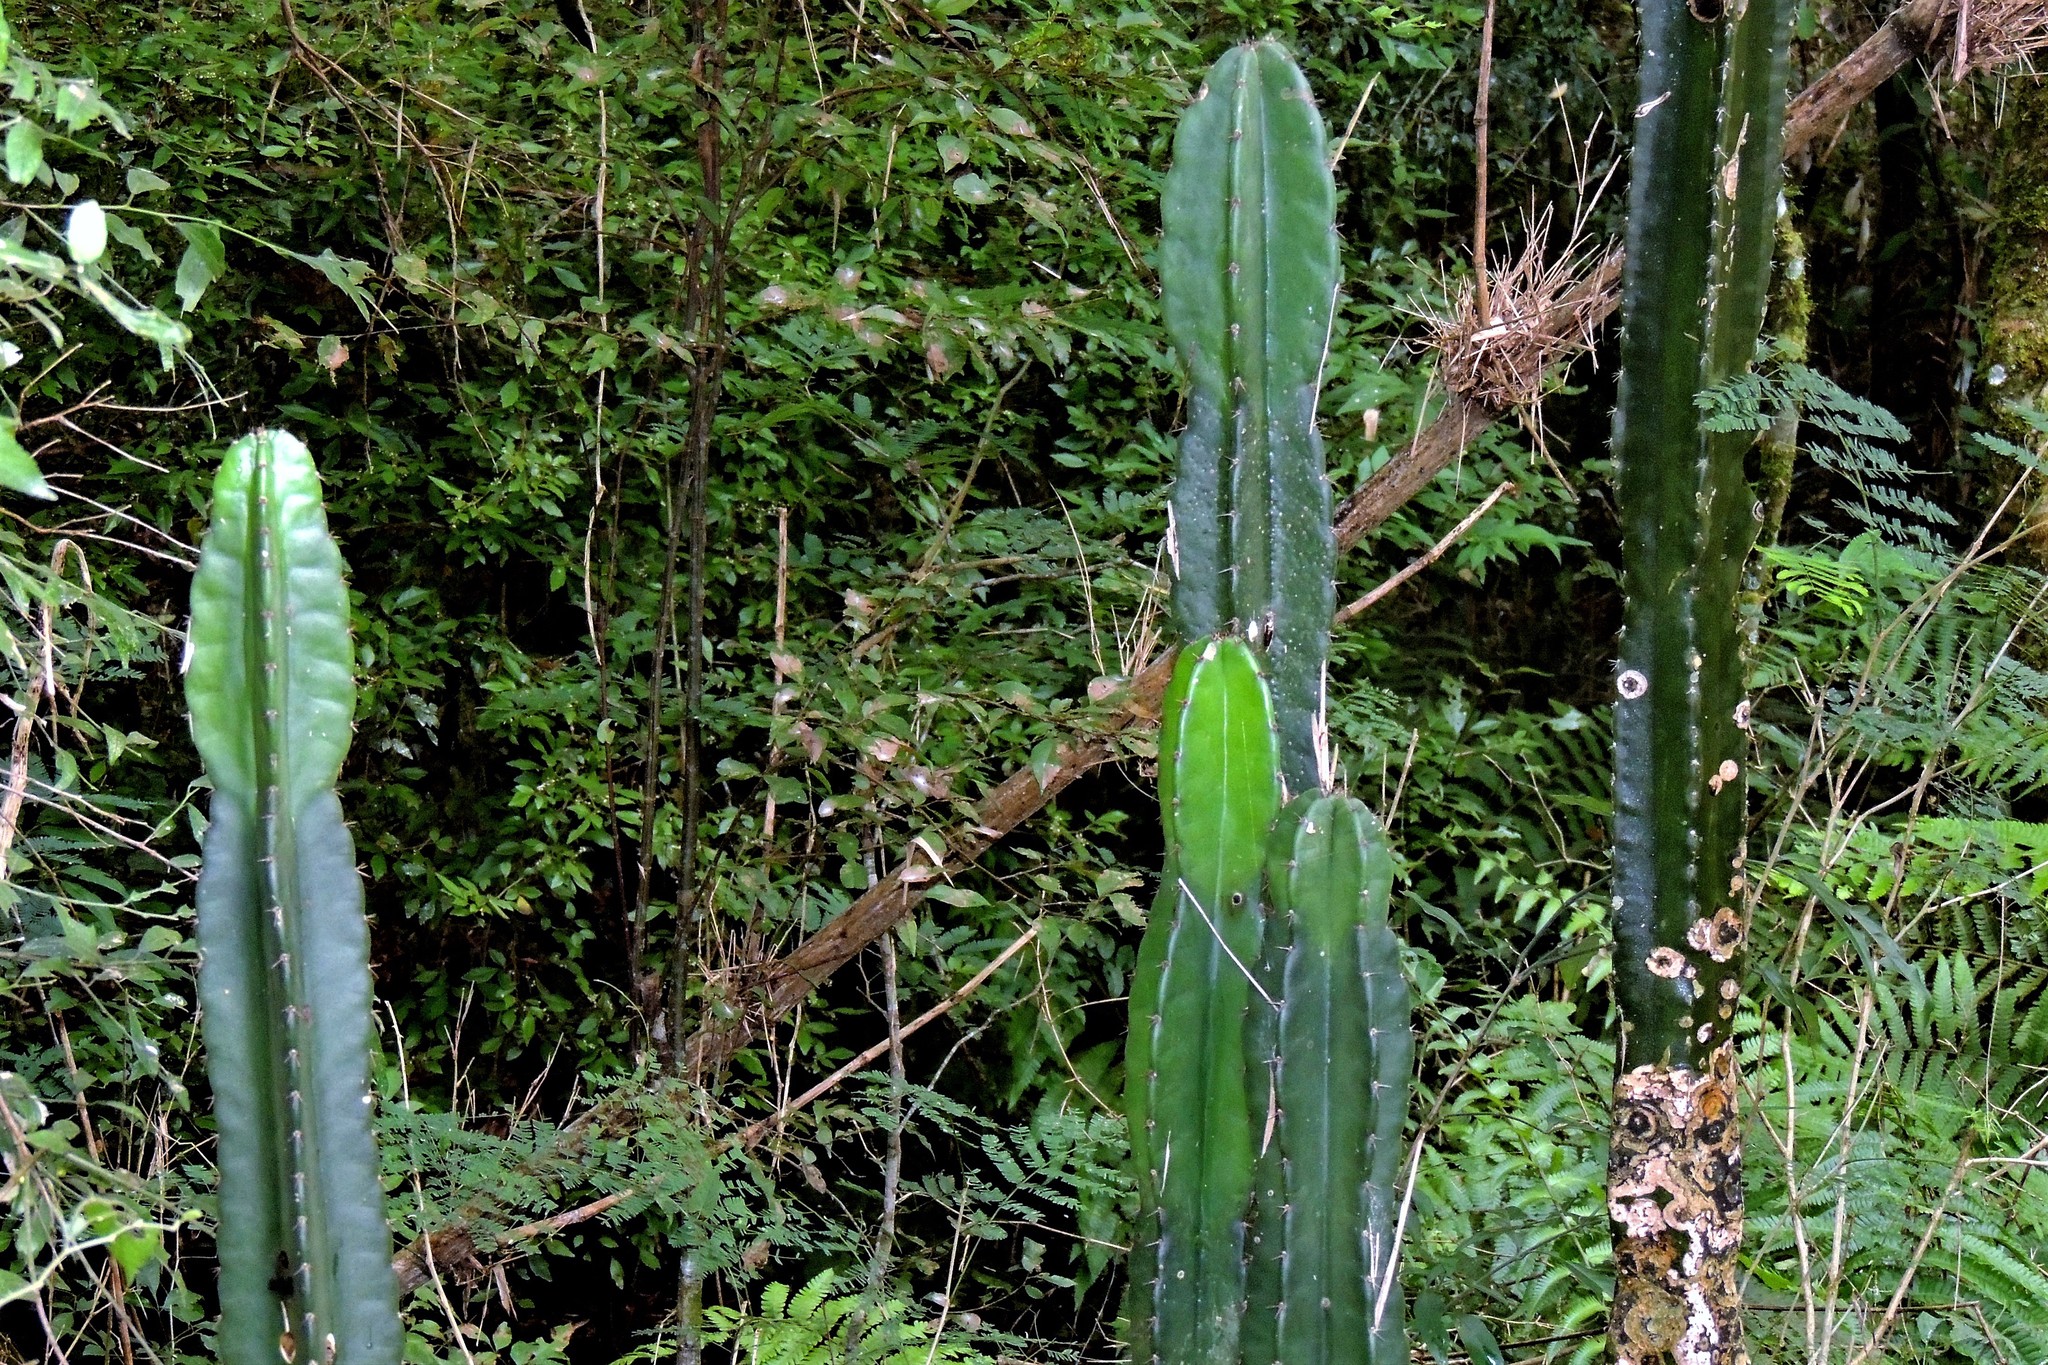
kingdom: Plantae
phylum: Tracheophyta
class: Magnoliopsida
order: Caryophyllales
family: Cactaceae
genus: Cereus
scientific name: Cereus stenogonus
